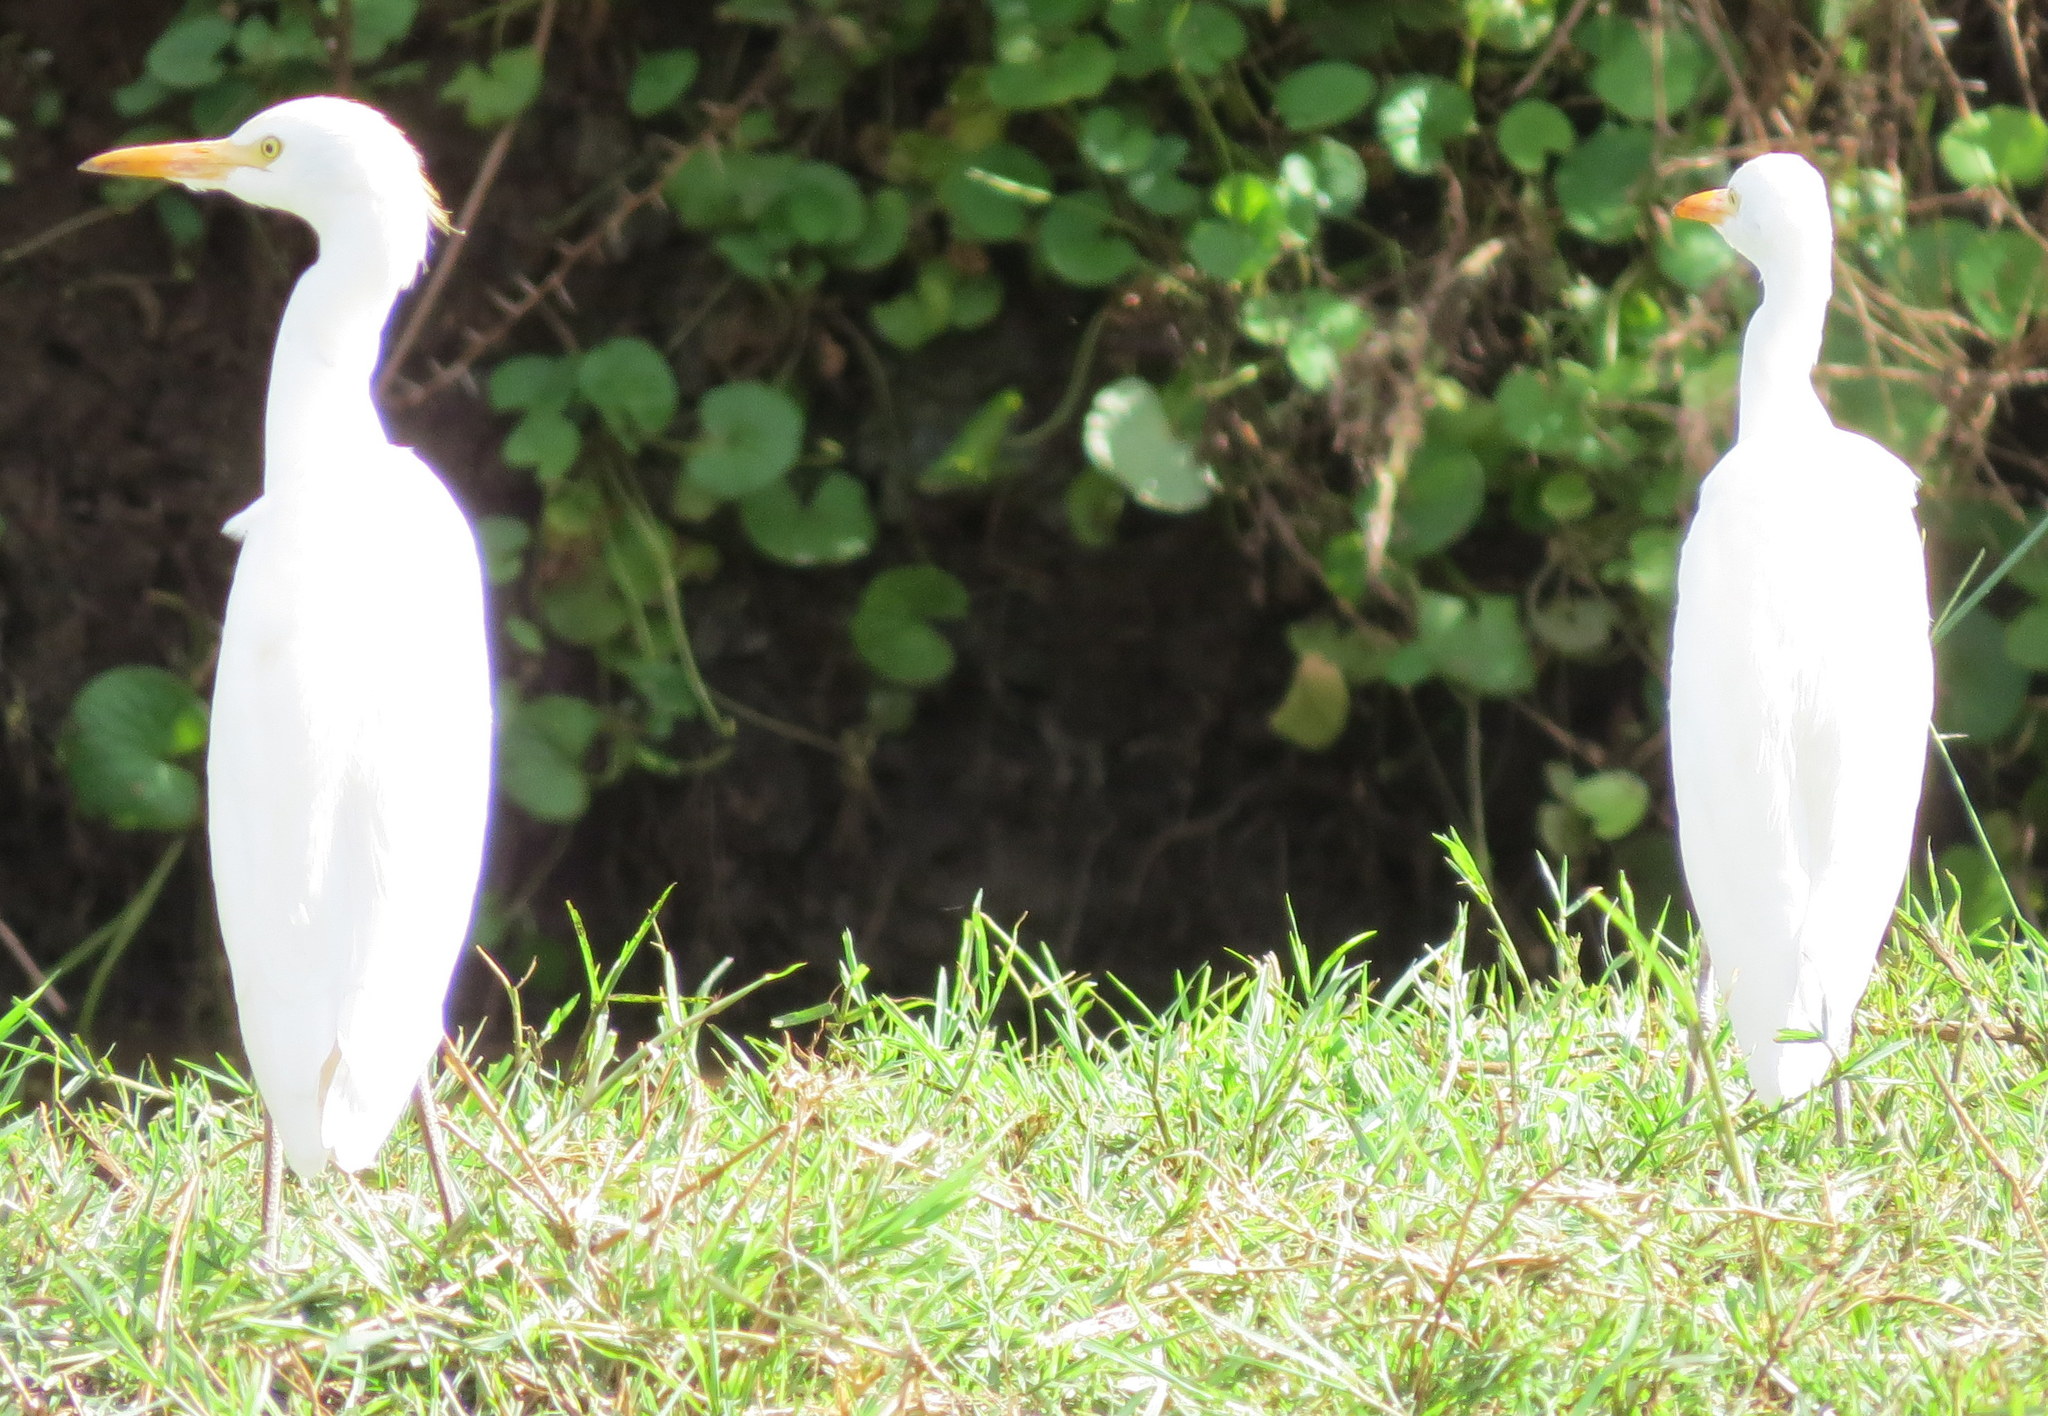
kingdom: Animalia
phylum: Chordata
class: Aves
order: Pelecaniformes
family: Ardeidae
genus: Bubulcus
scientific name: Bubulcus ibis
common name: Cattle egret
